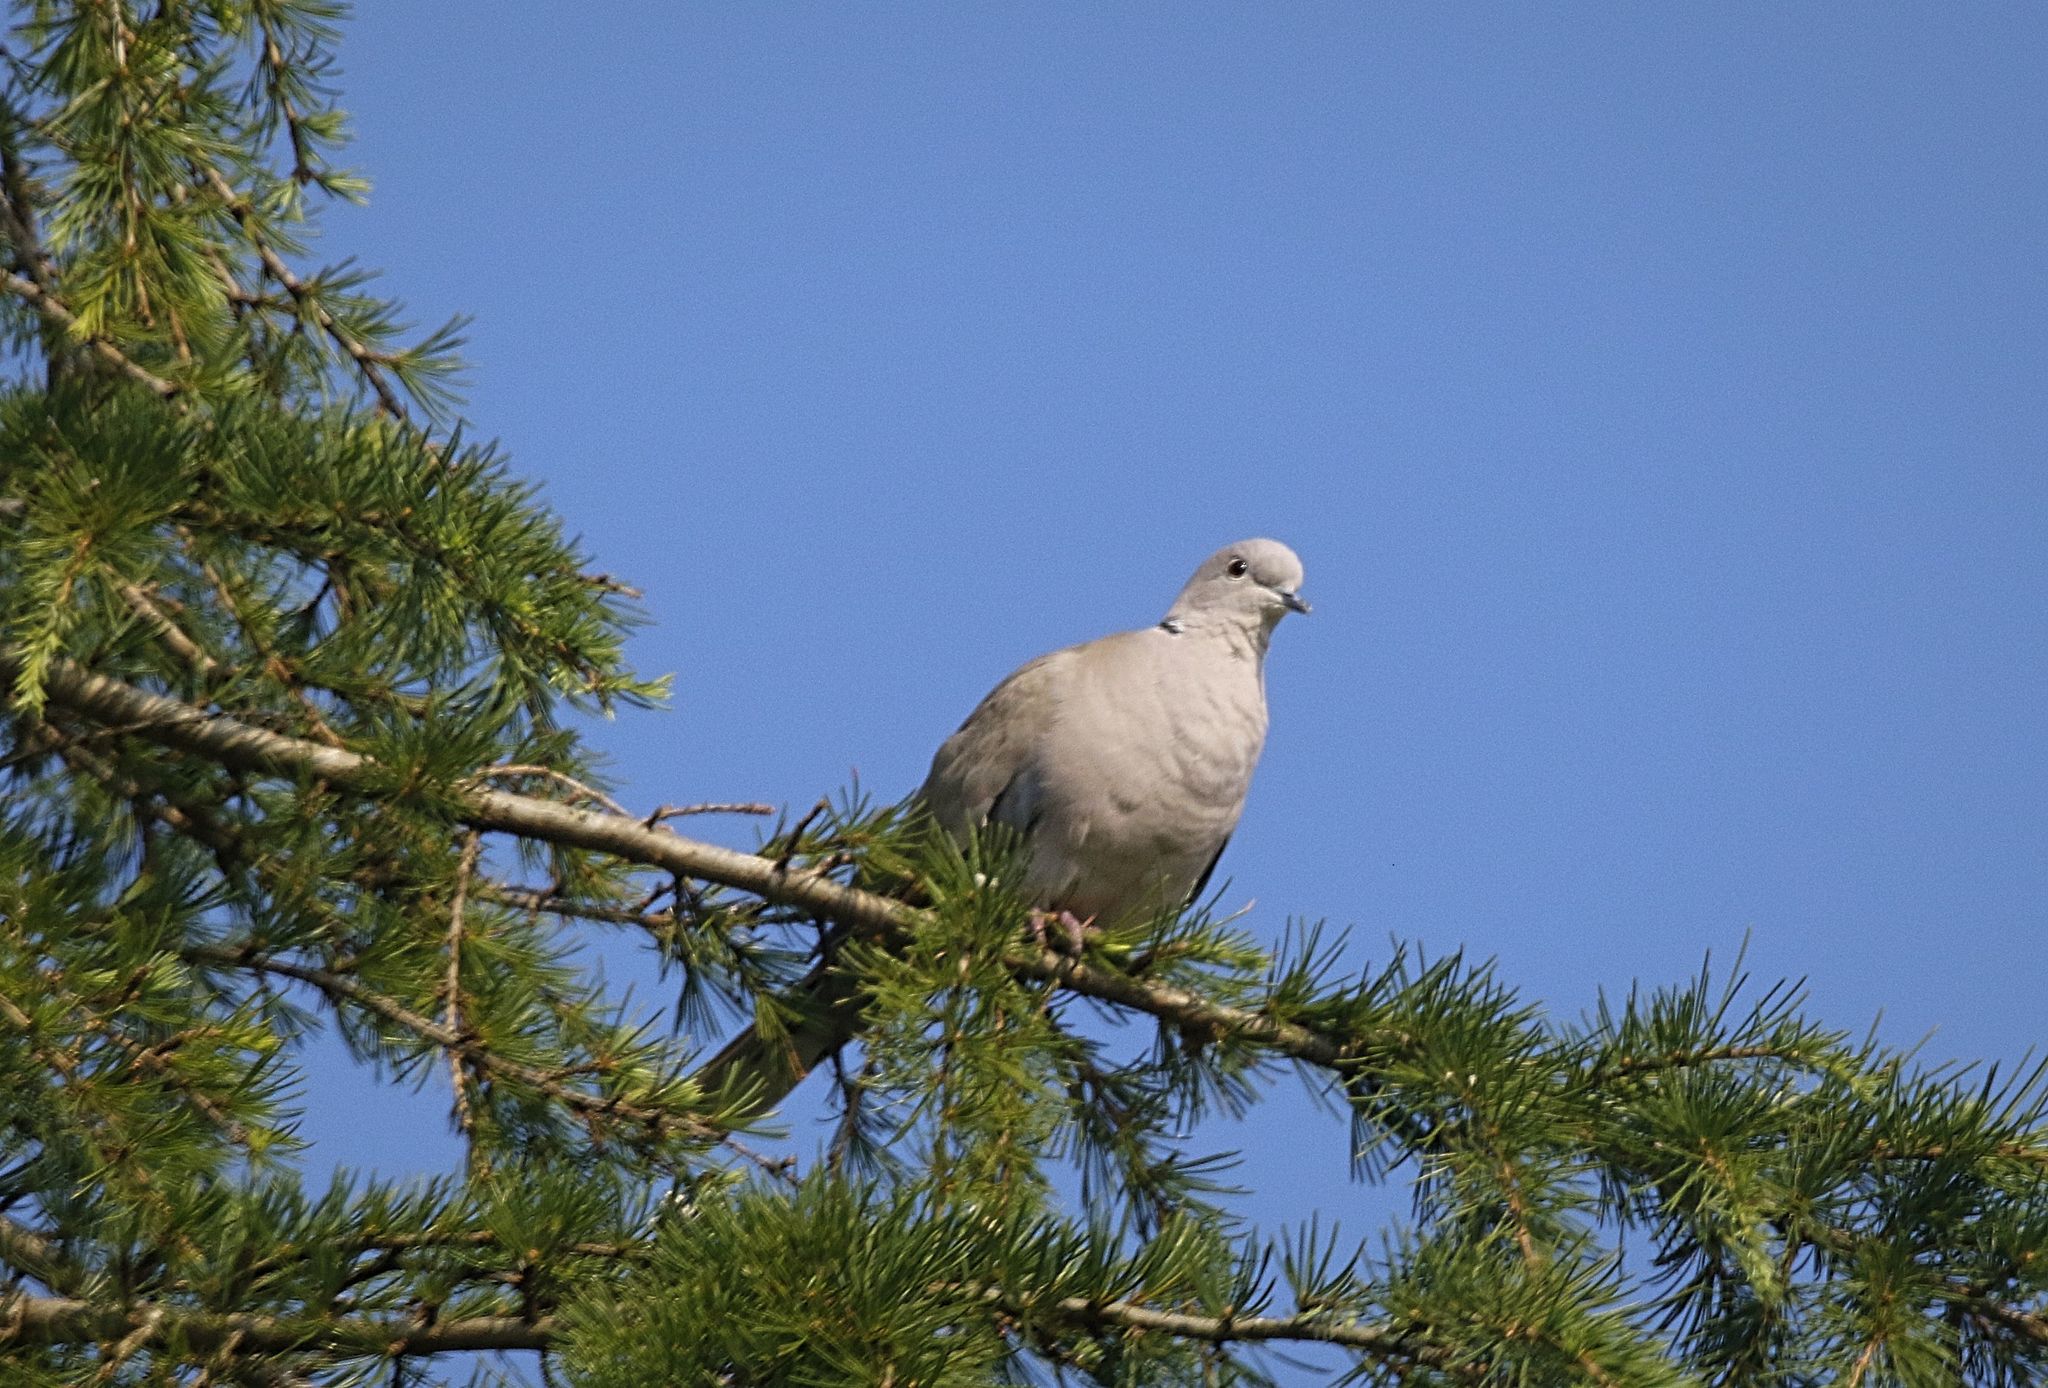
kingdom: Animalia
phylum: Chordata
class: Aves
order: Columbiformes
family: Columbidae
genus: Streptopelia
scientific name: Streptopelia decaocto
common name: Eurasian collared dove
